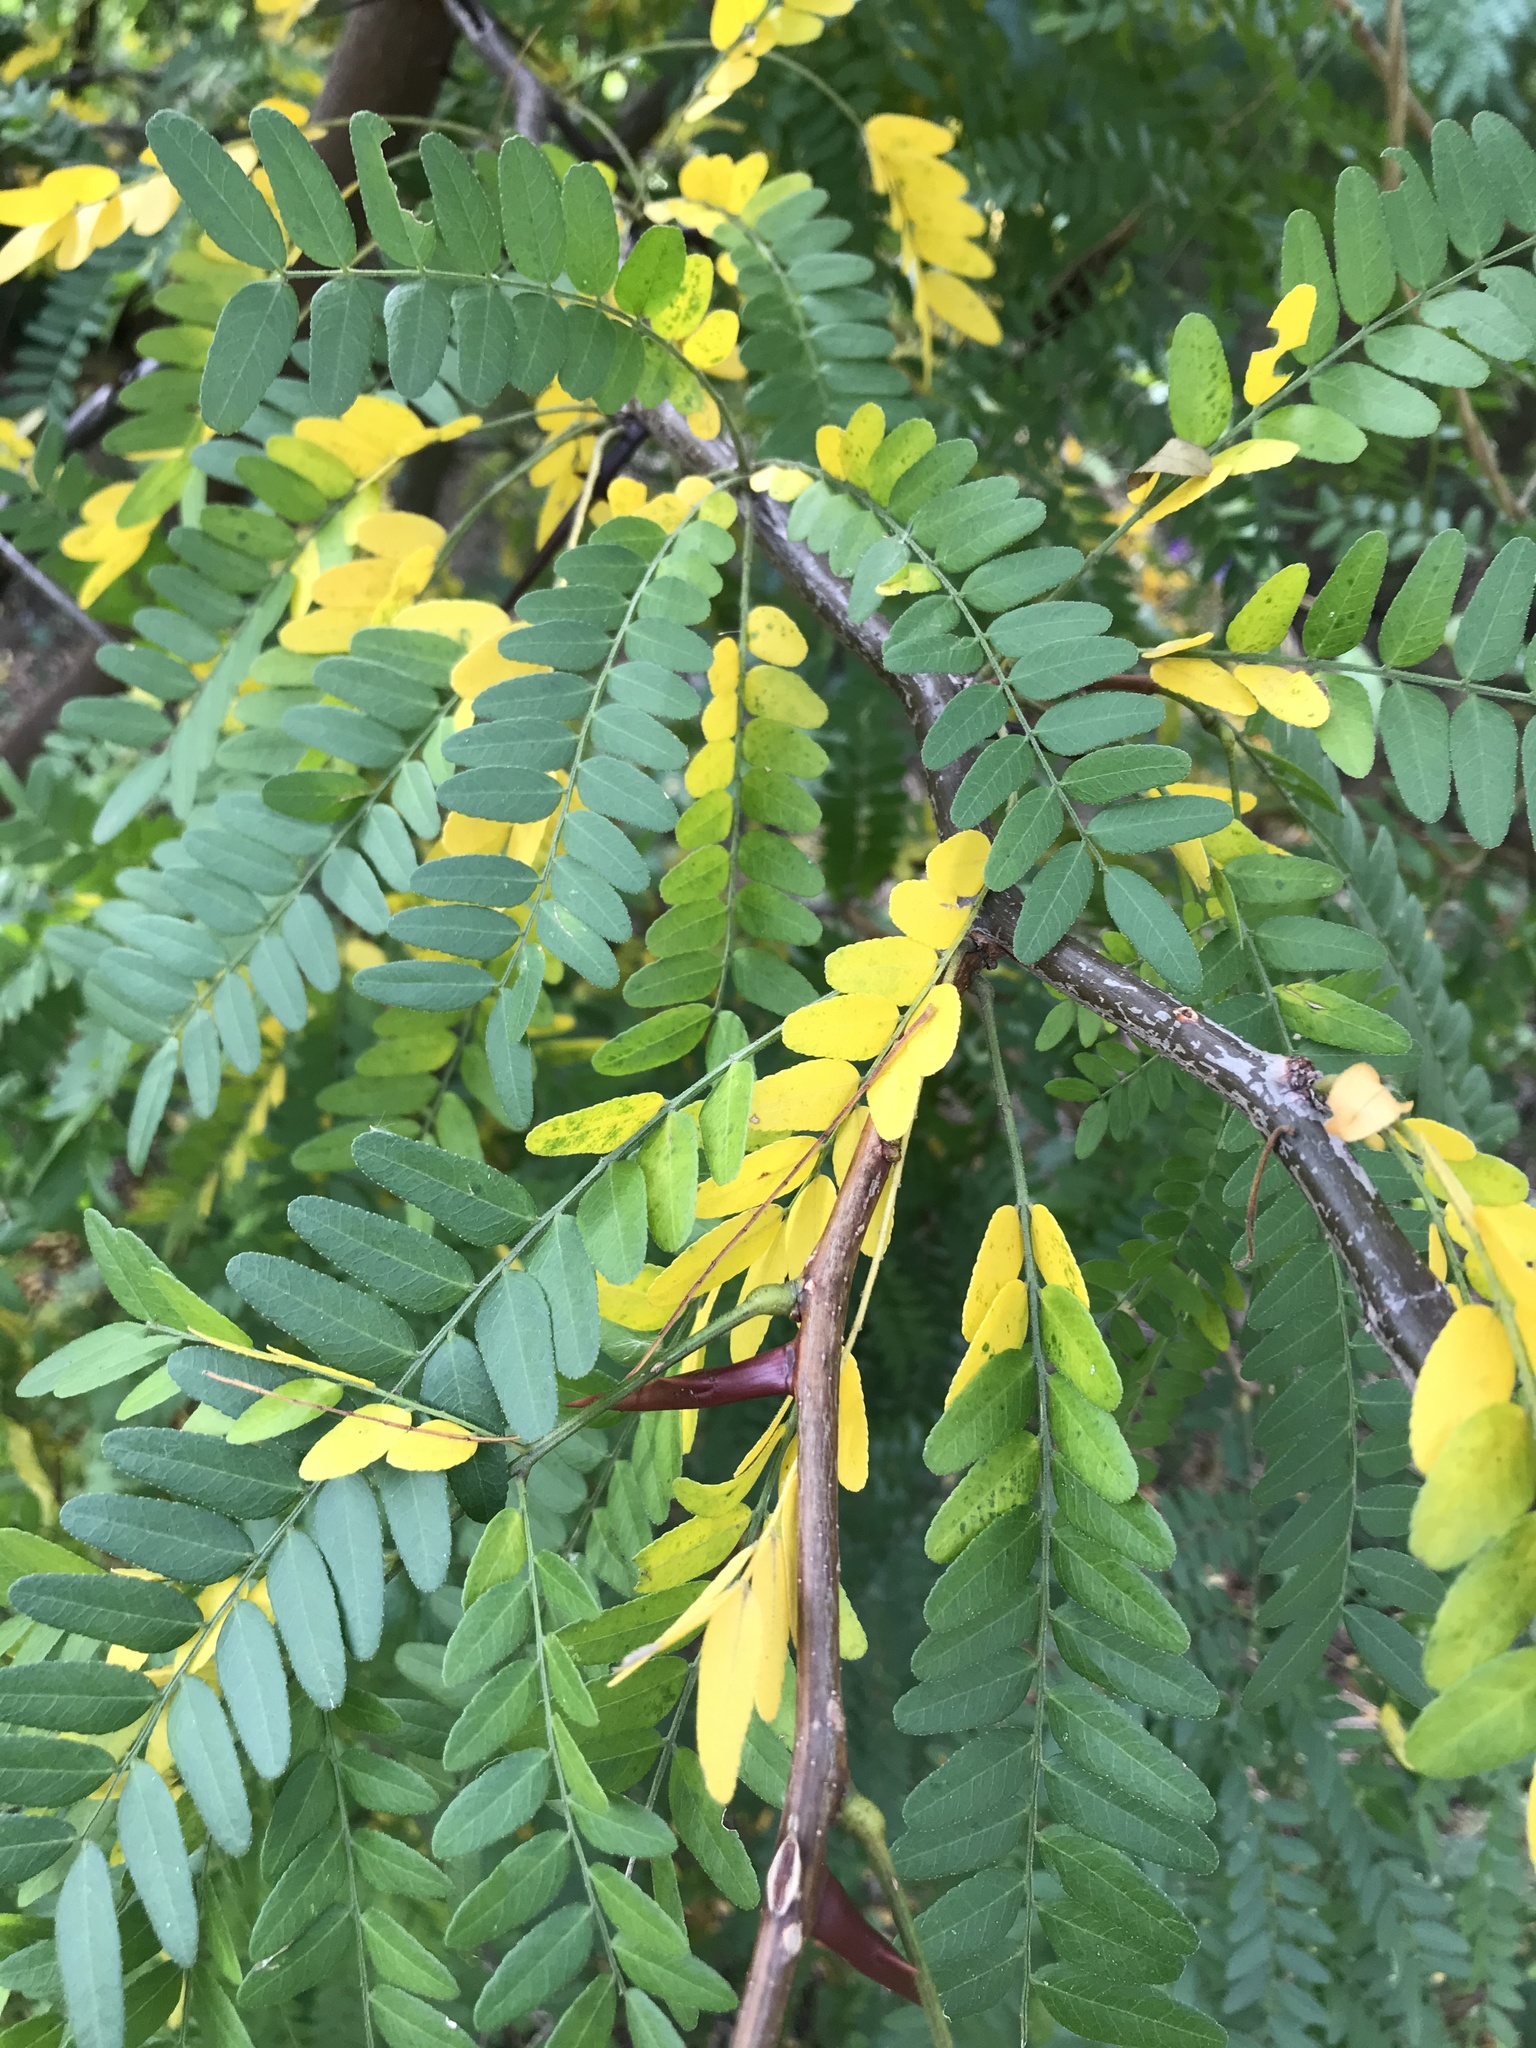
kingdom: Plantae
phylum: Tracheophyta
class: Magnoliopsida
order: Fabales
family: Fabaceae
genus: Gleditsia
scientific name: Gleditsia triacanthos
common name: Common honeylocust
